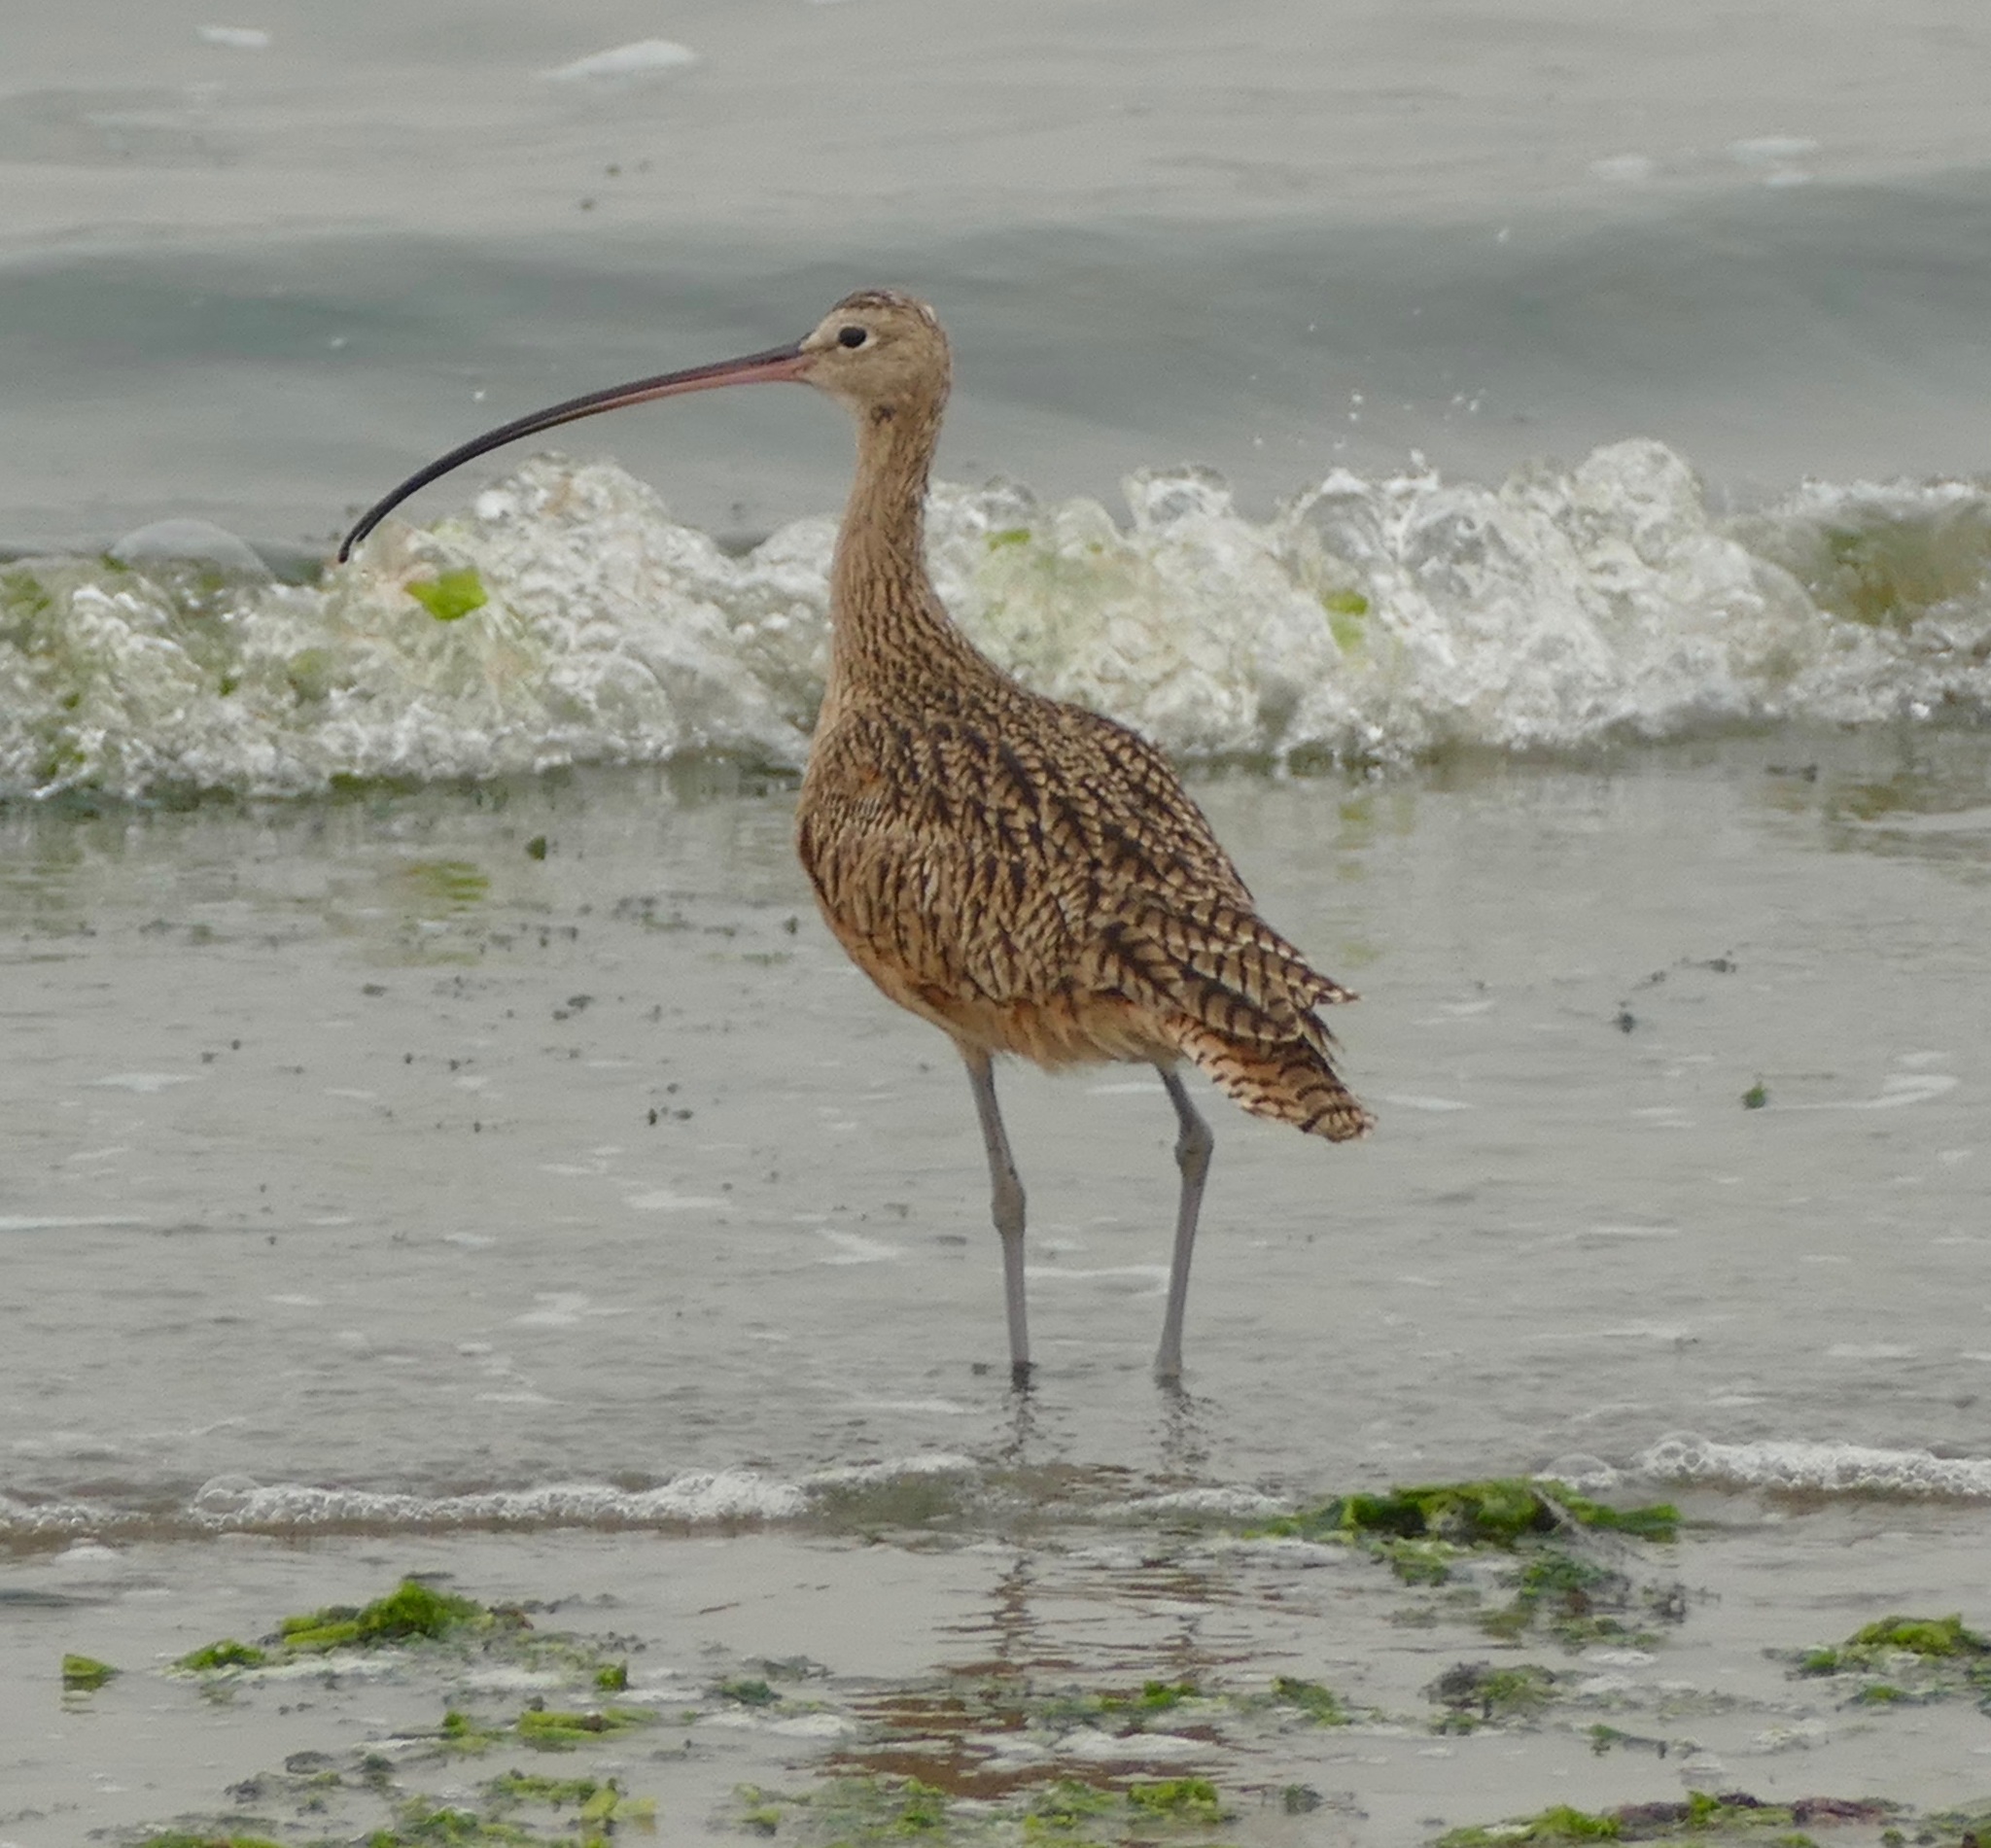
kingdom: Animalia
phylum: Chordata
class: Aves
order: Charadriiformes
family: Scolopacidae
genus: Numenius
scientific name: Numenius americanus
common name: Long-billed curlew
